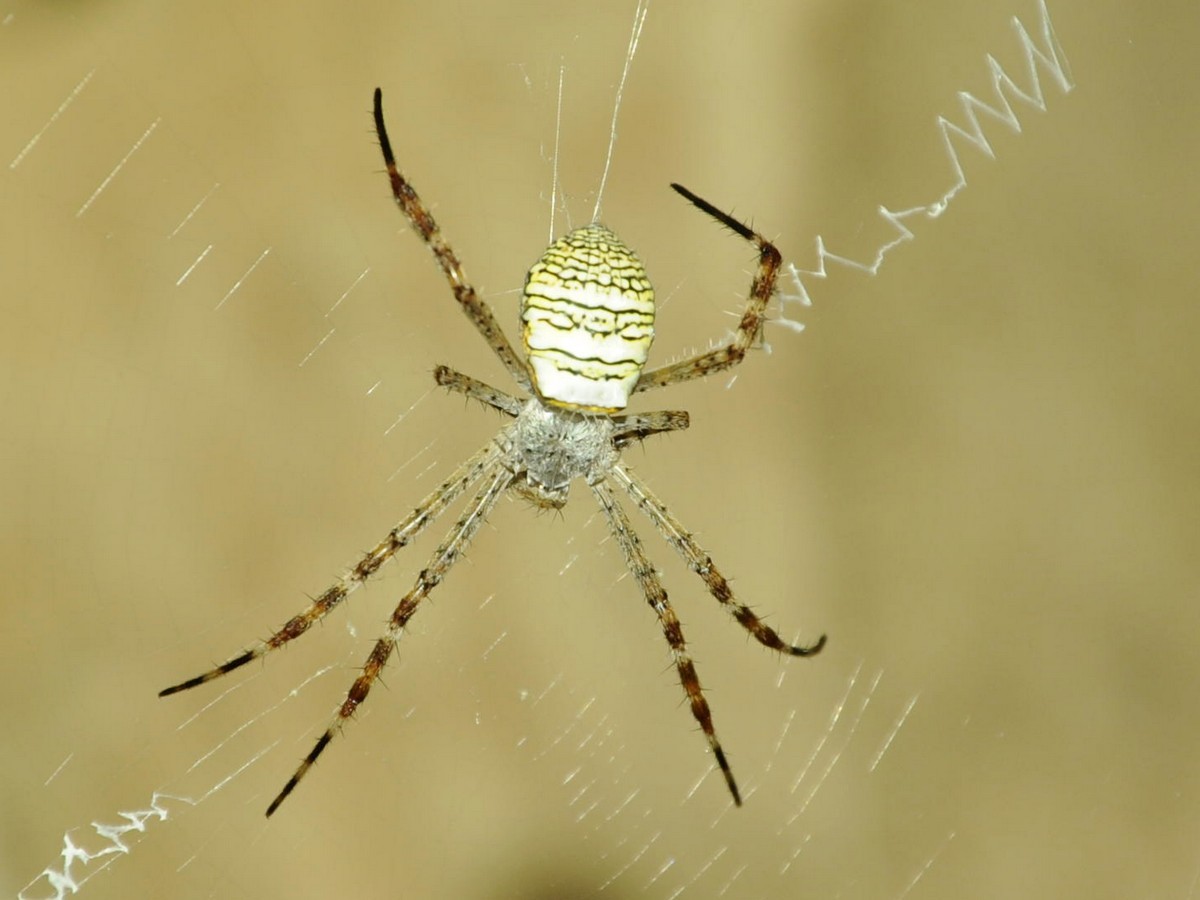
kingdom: Animalia
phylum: Arthropoda
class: Arachnida
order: Araneae
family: Araneidae
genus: Argiope
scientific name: Argiope aemula
